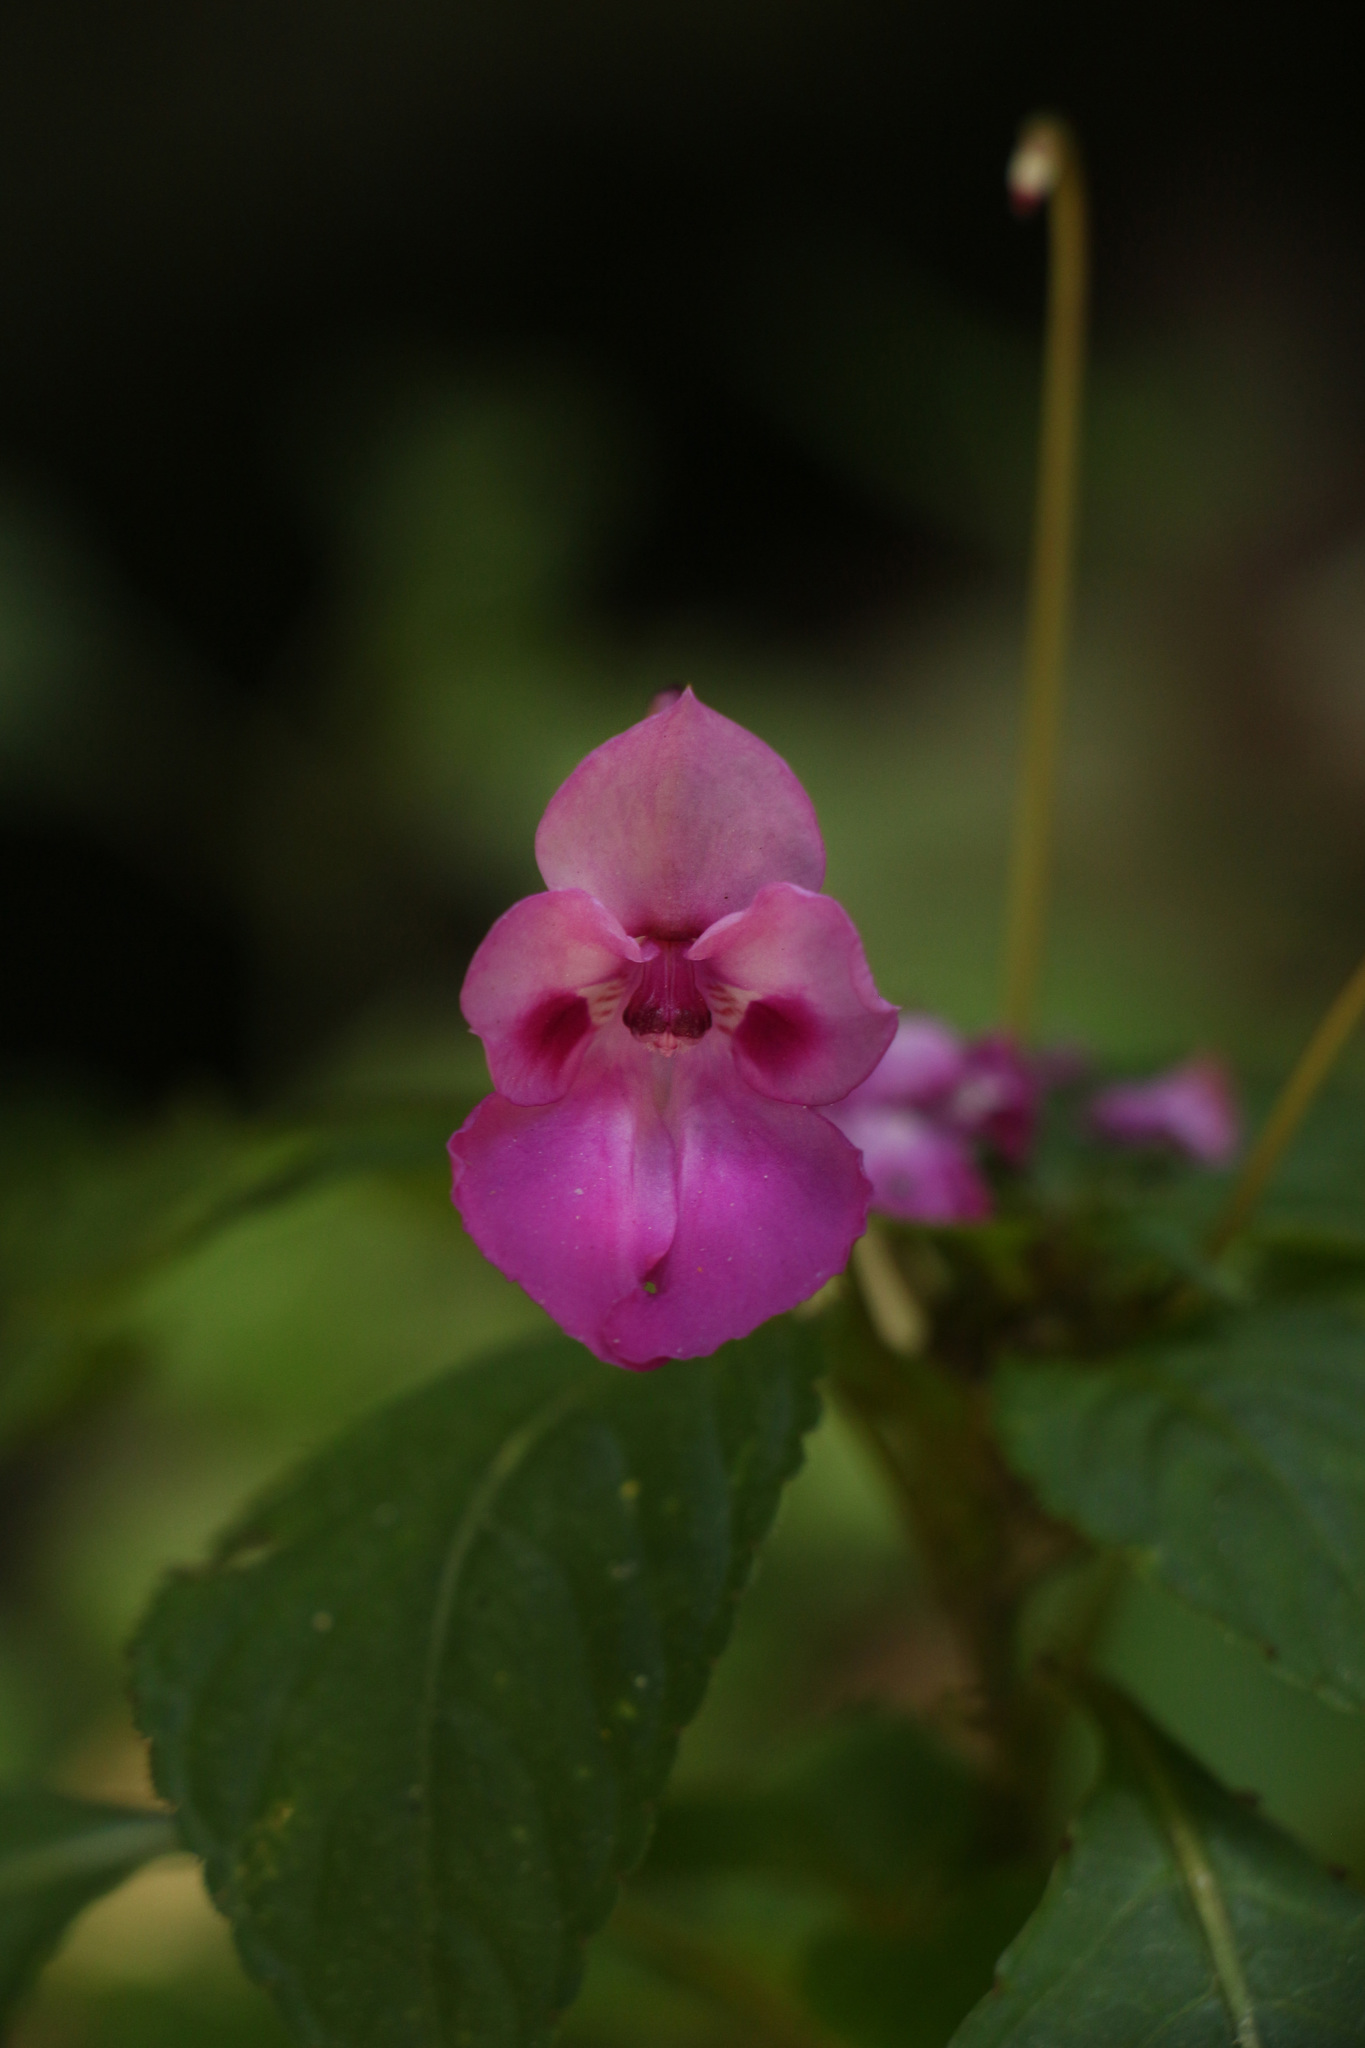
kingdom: Plantae
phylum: Tracheophyta
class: Magnoliopsida
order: Ericales
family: Balsaminaceae
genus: Impatiens
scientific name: Impatiens decipiens
